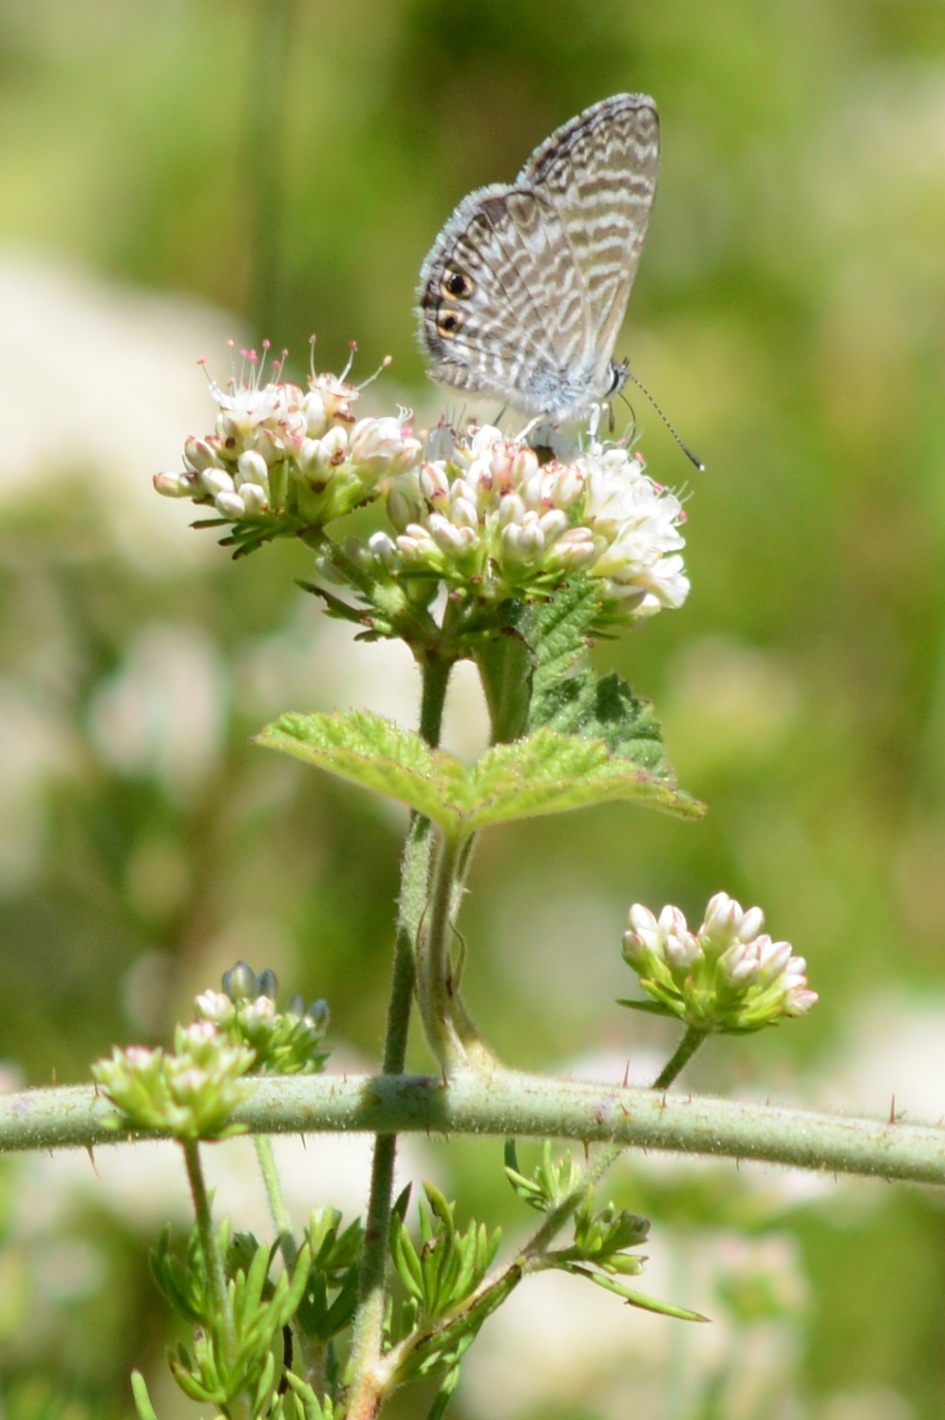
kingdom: Animalia
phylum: Arthropoda
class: Insecta
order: Lepidoptera
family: Lycaenidae
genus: Leptotes
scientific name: Leptotes marina
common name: Marine blue
